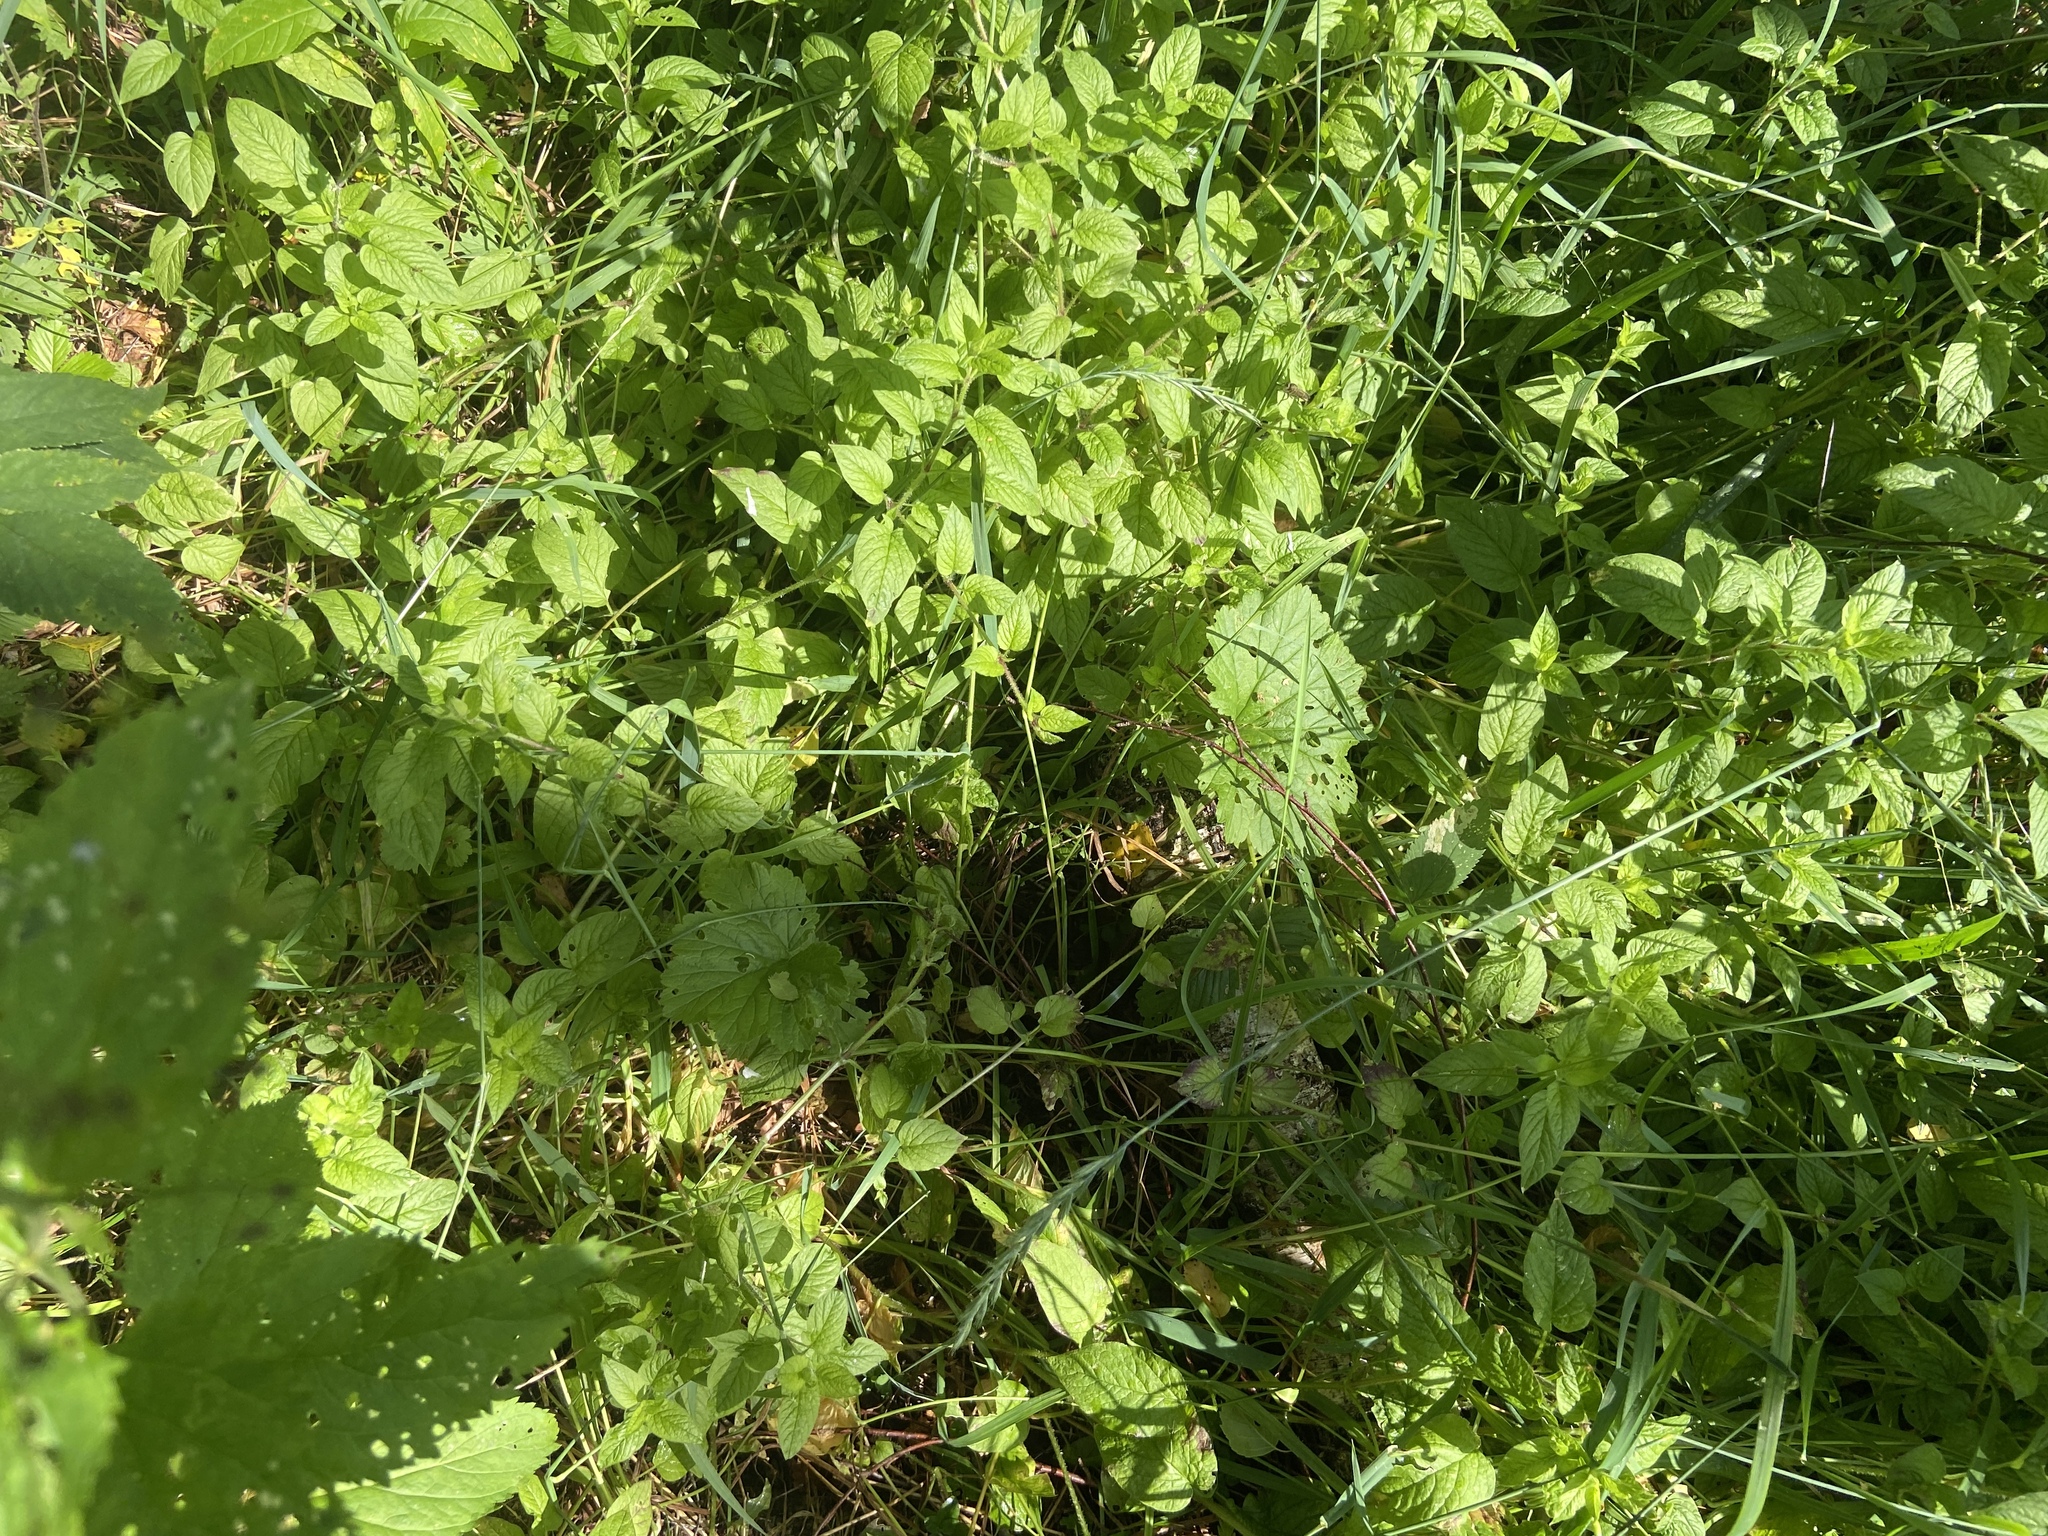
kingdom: Plantae
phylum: Tracheophyta
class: Magnoliopsida
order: Caryophyllales
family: Caryophyllaceae
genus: Stellaria
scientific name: Stellaria nemorum
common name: Wood stitchwort
